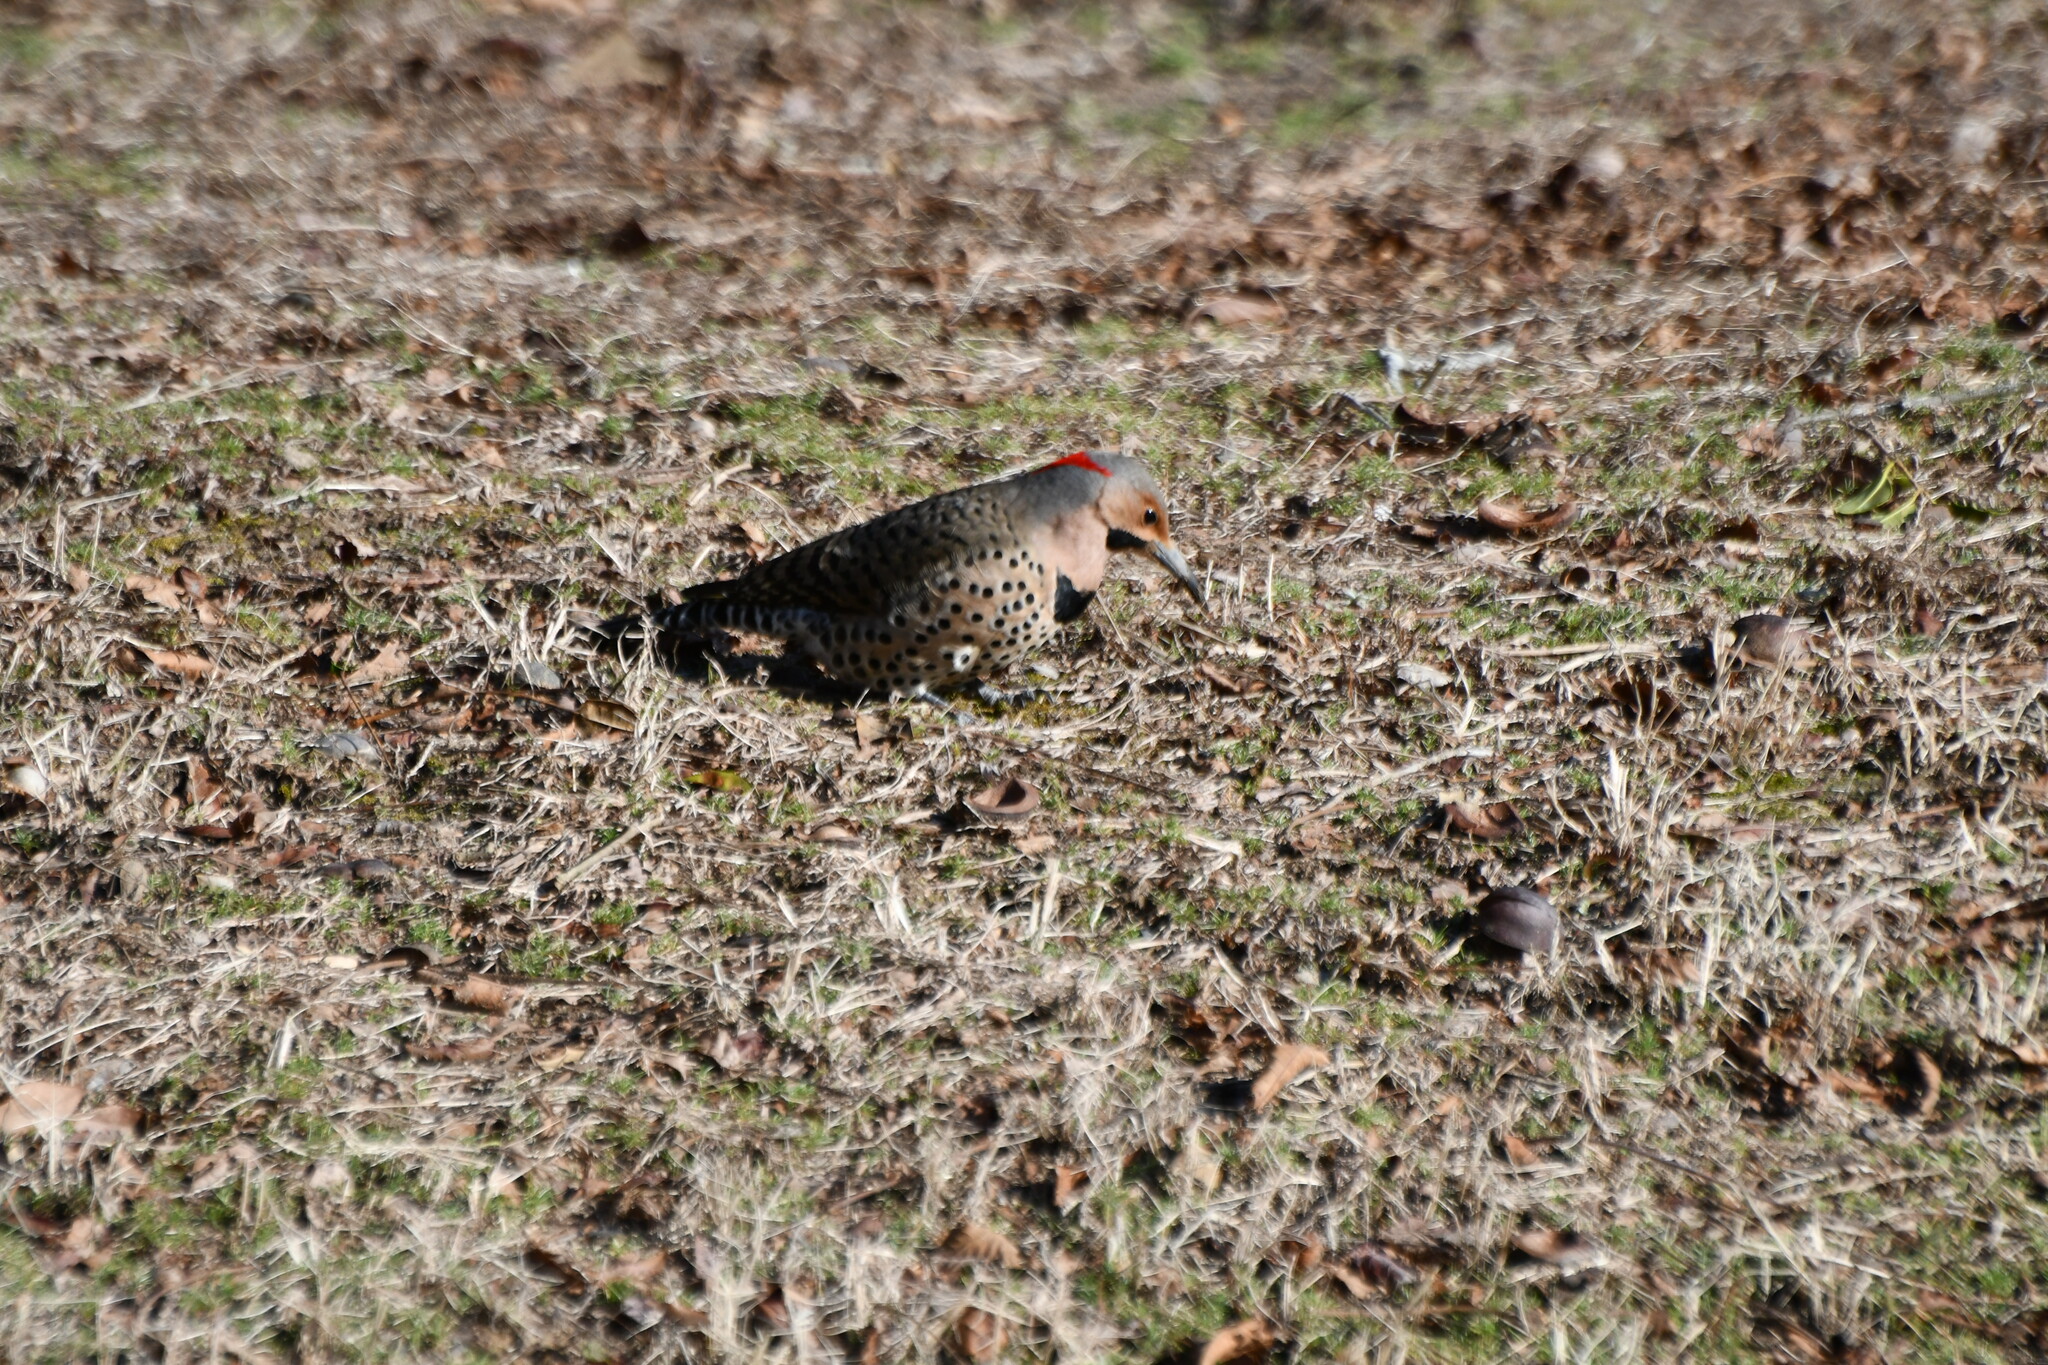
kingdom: Animalia
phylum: Chordata
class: Aves
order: Piciformes
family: Picidae
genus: Colaptes
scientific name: Colaptes auratus
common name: Northern flicker
